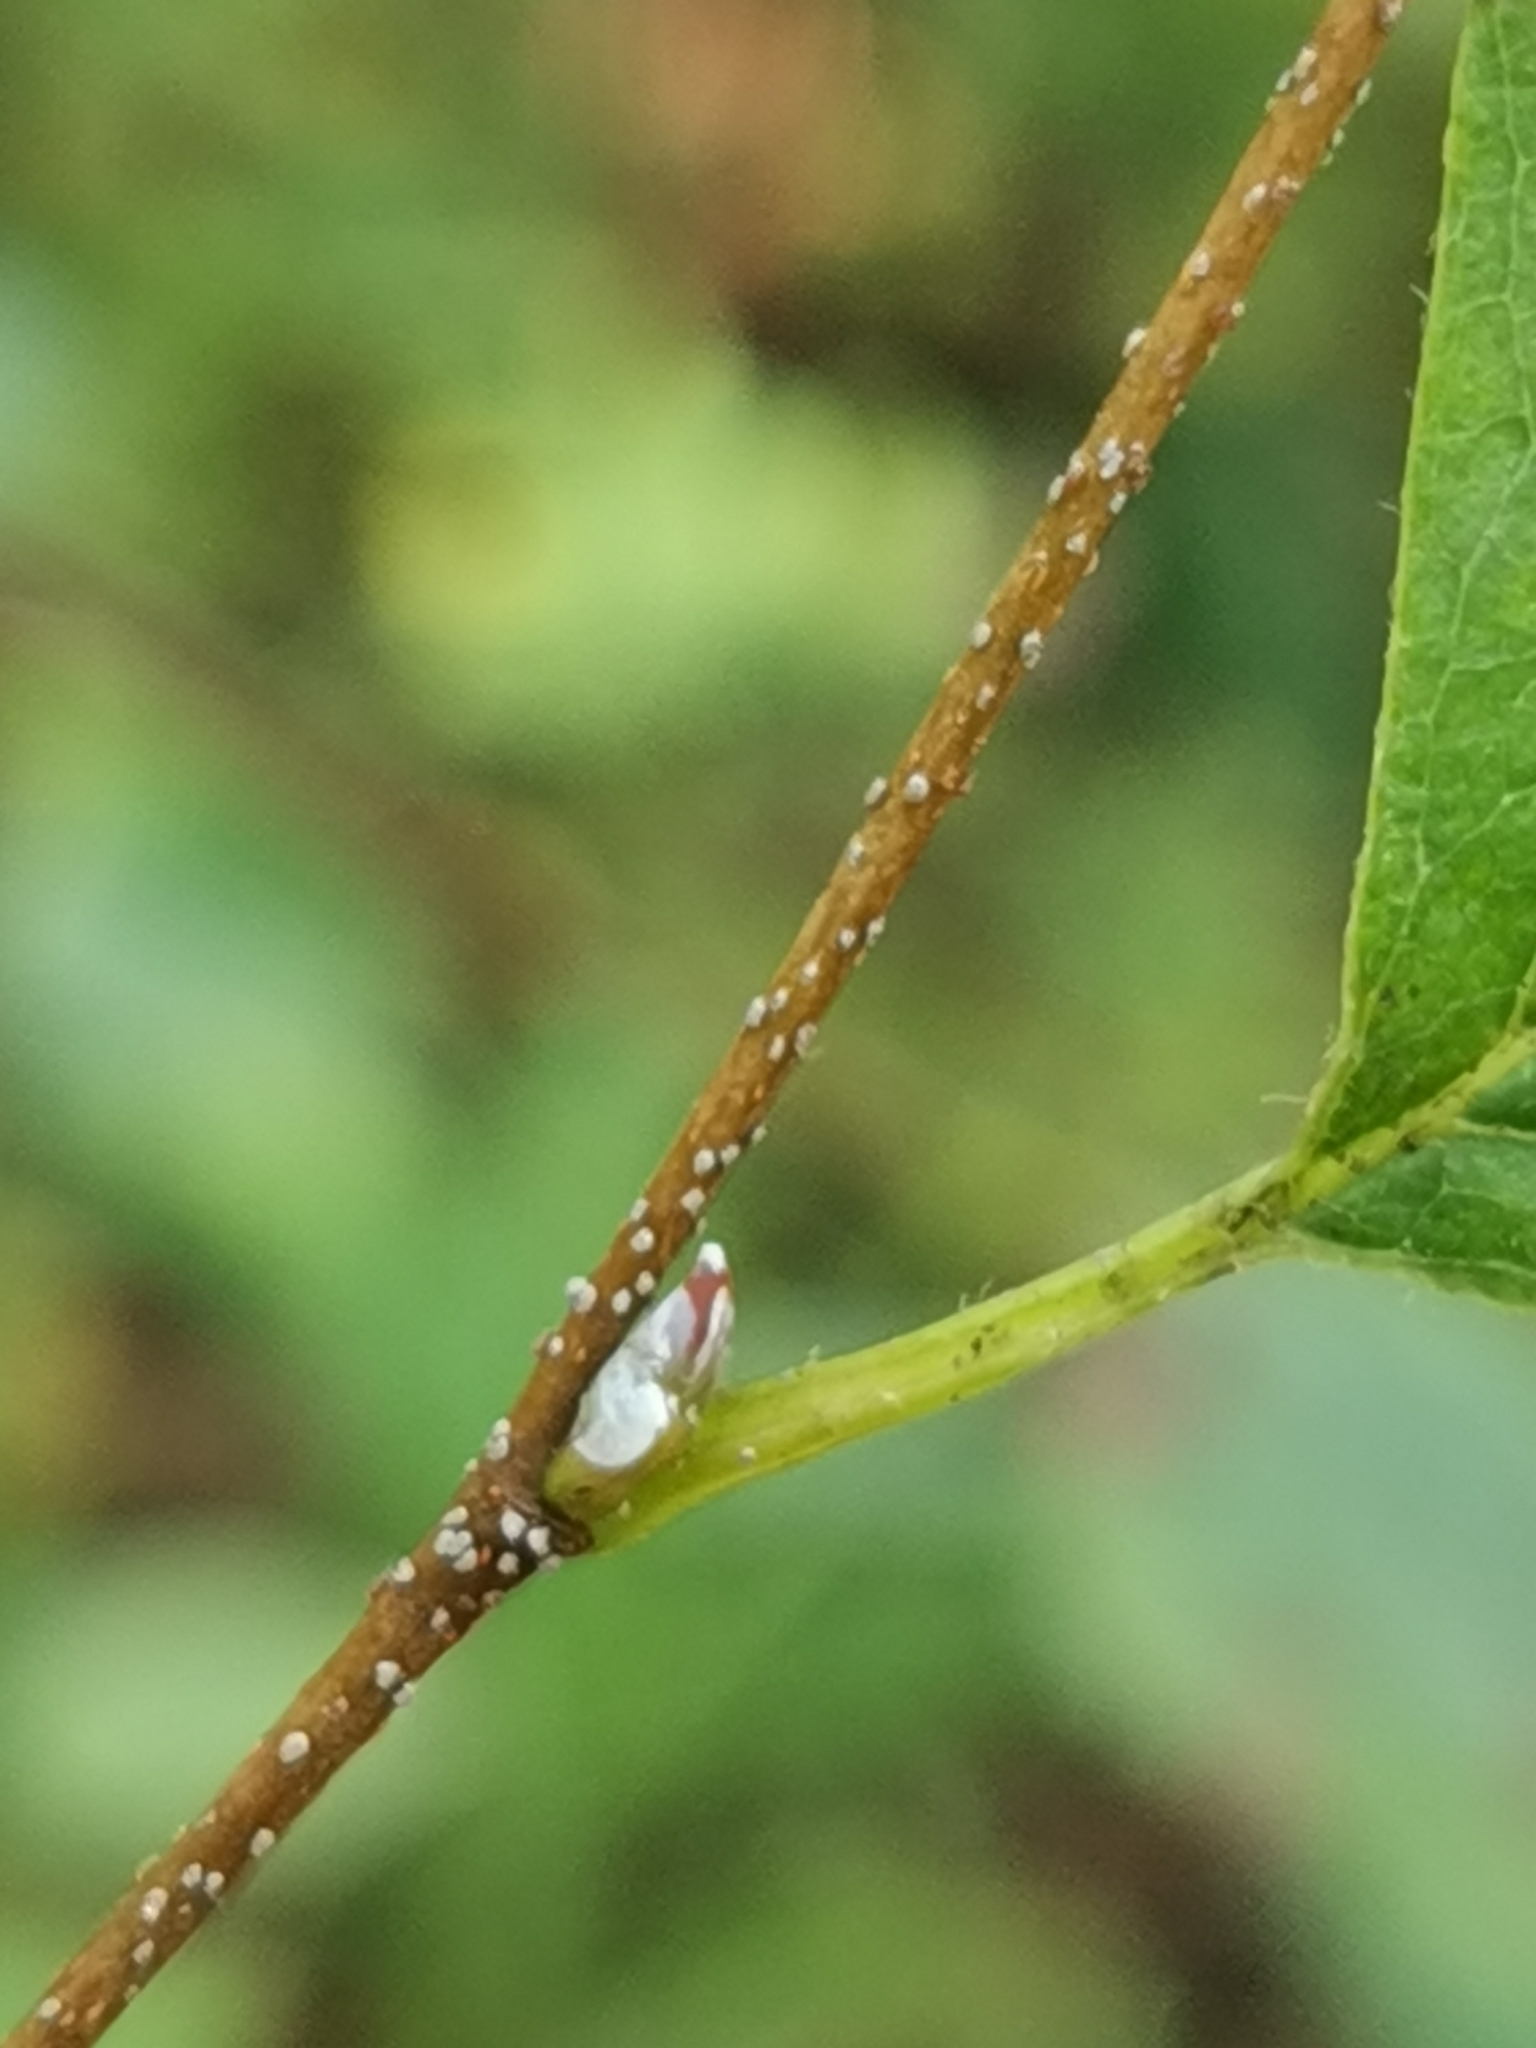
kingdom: Plantae
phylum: Tracheophyta
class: Magnoliopsida
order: Fagales
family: Betulaceae
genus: Betula
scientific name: Betula dauurica
